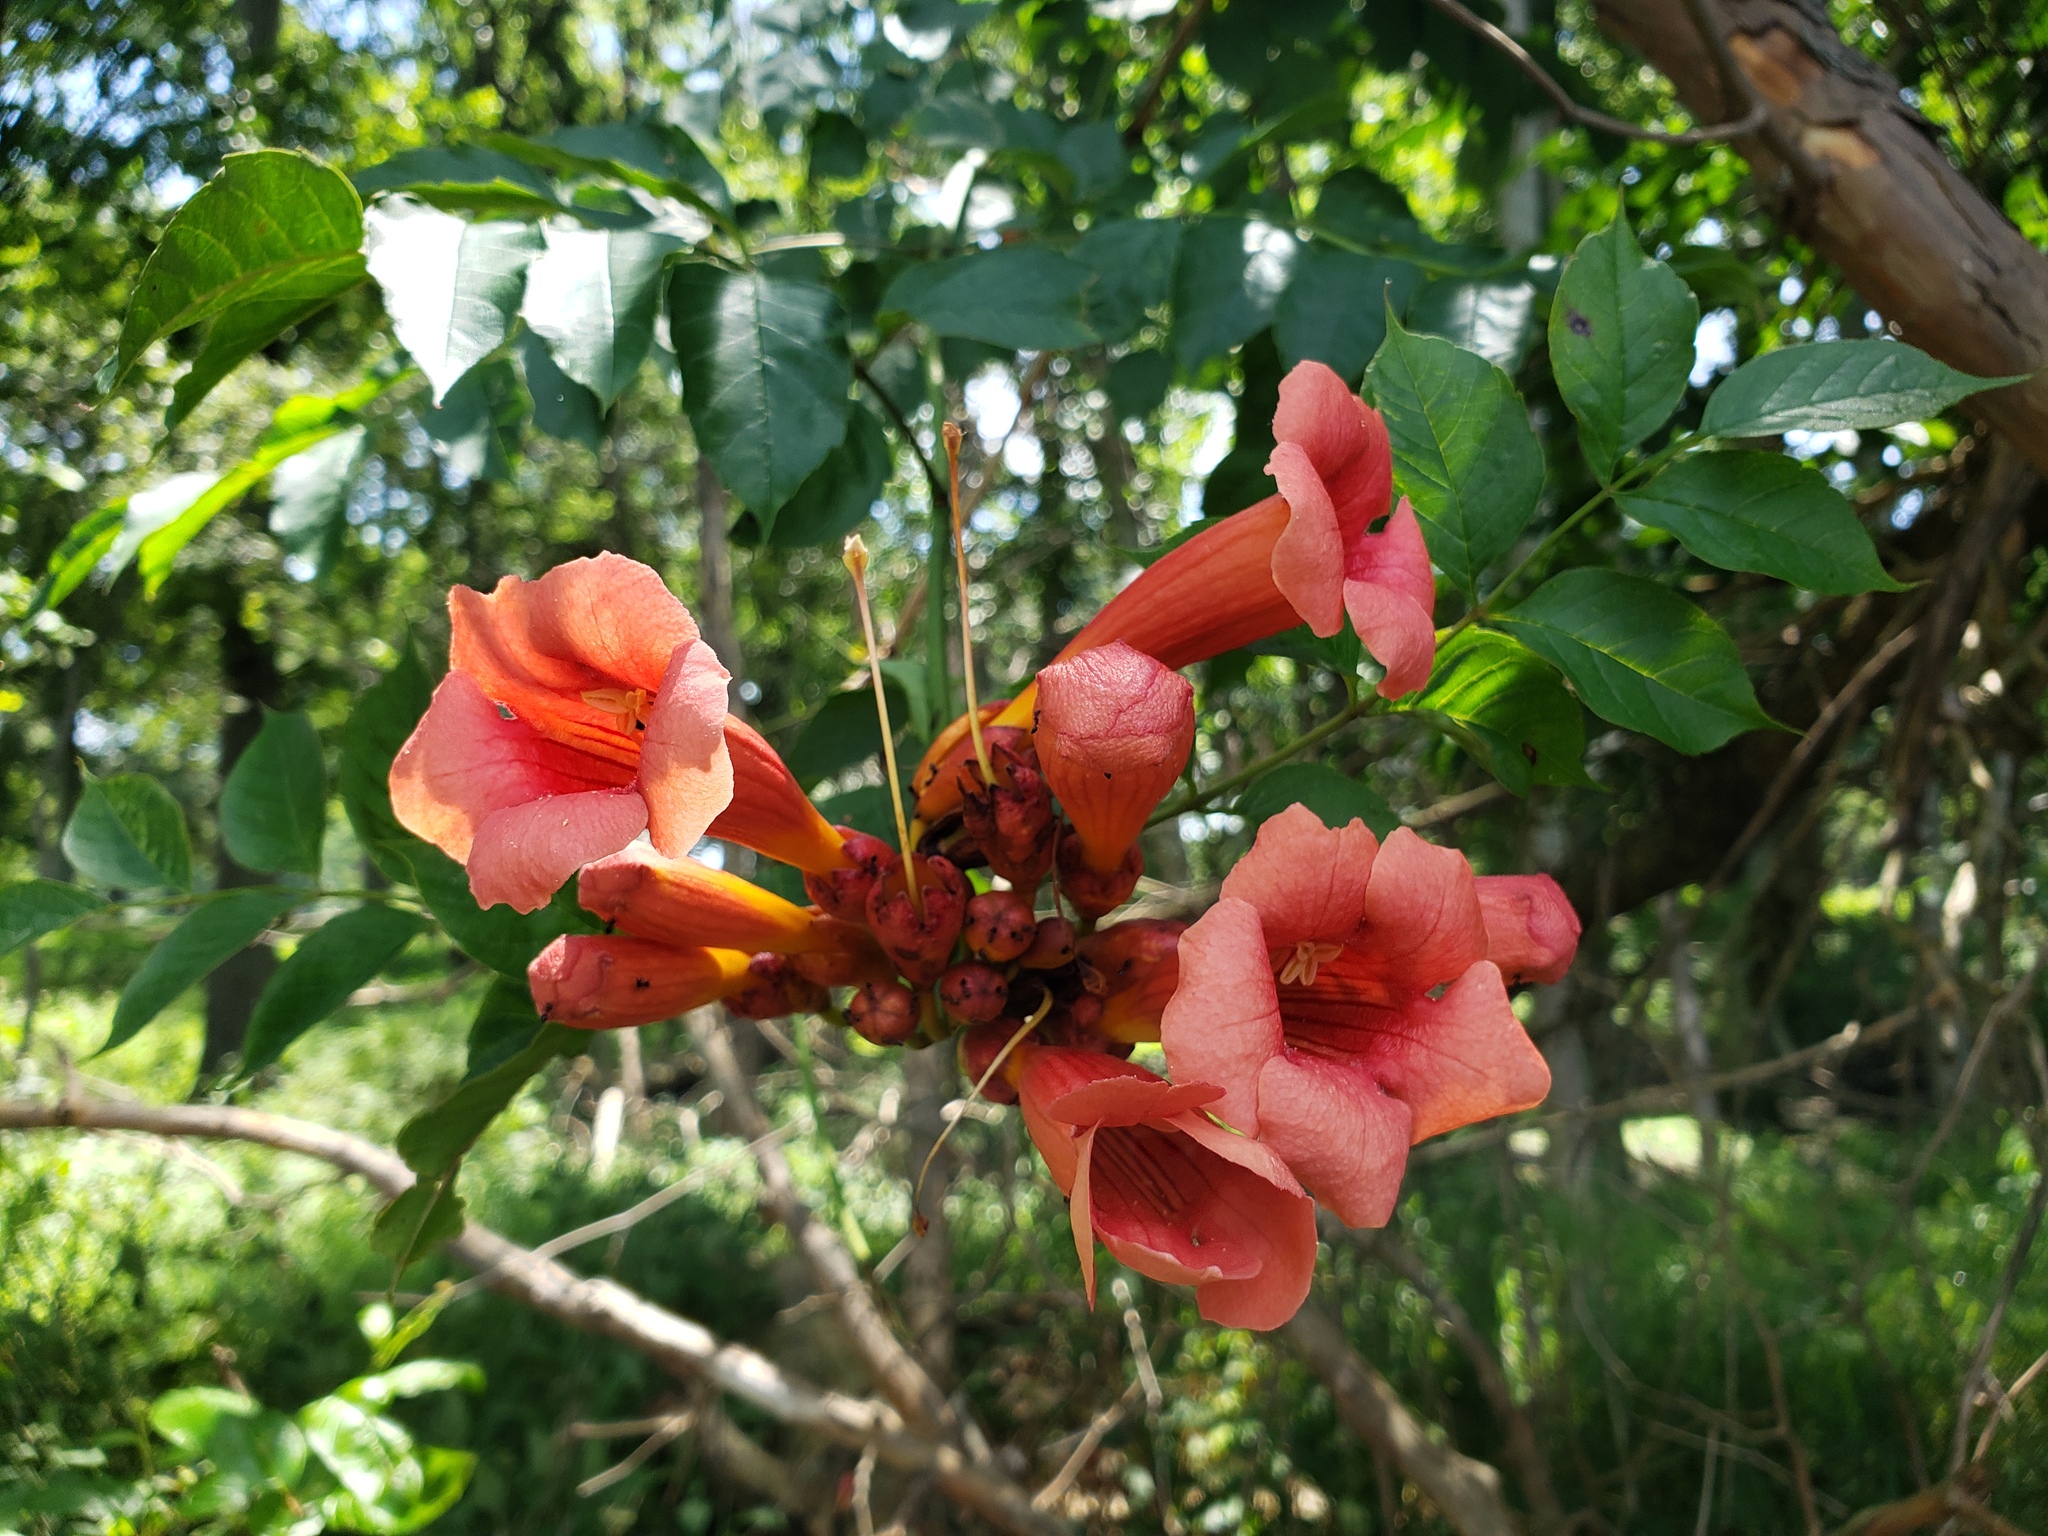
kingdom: Plantae
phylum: Tracheophyta
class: Magnoliopsida
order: Lamiales
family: Bignoniaceae
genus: Campsis
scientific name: Campsis radicans
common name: Trumpet-creeper
